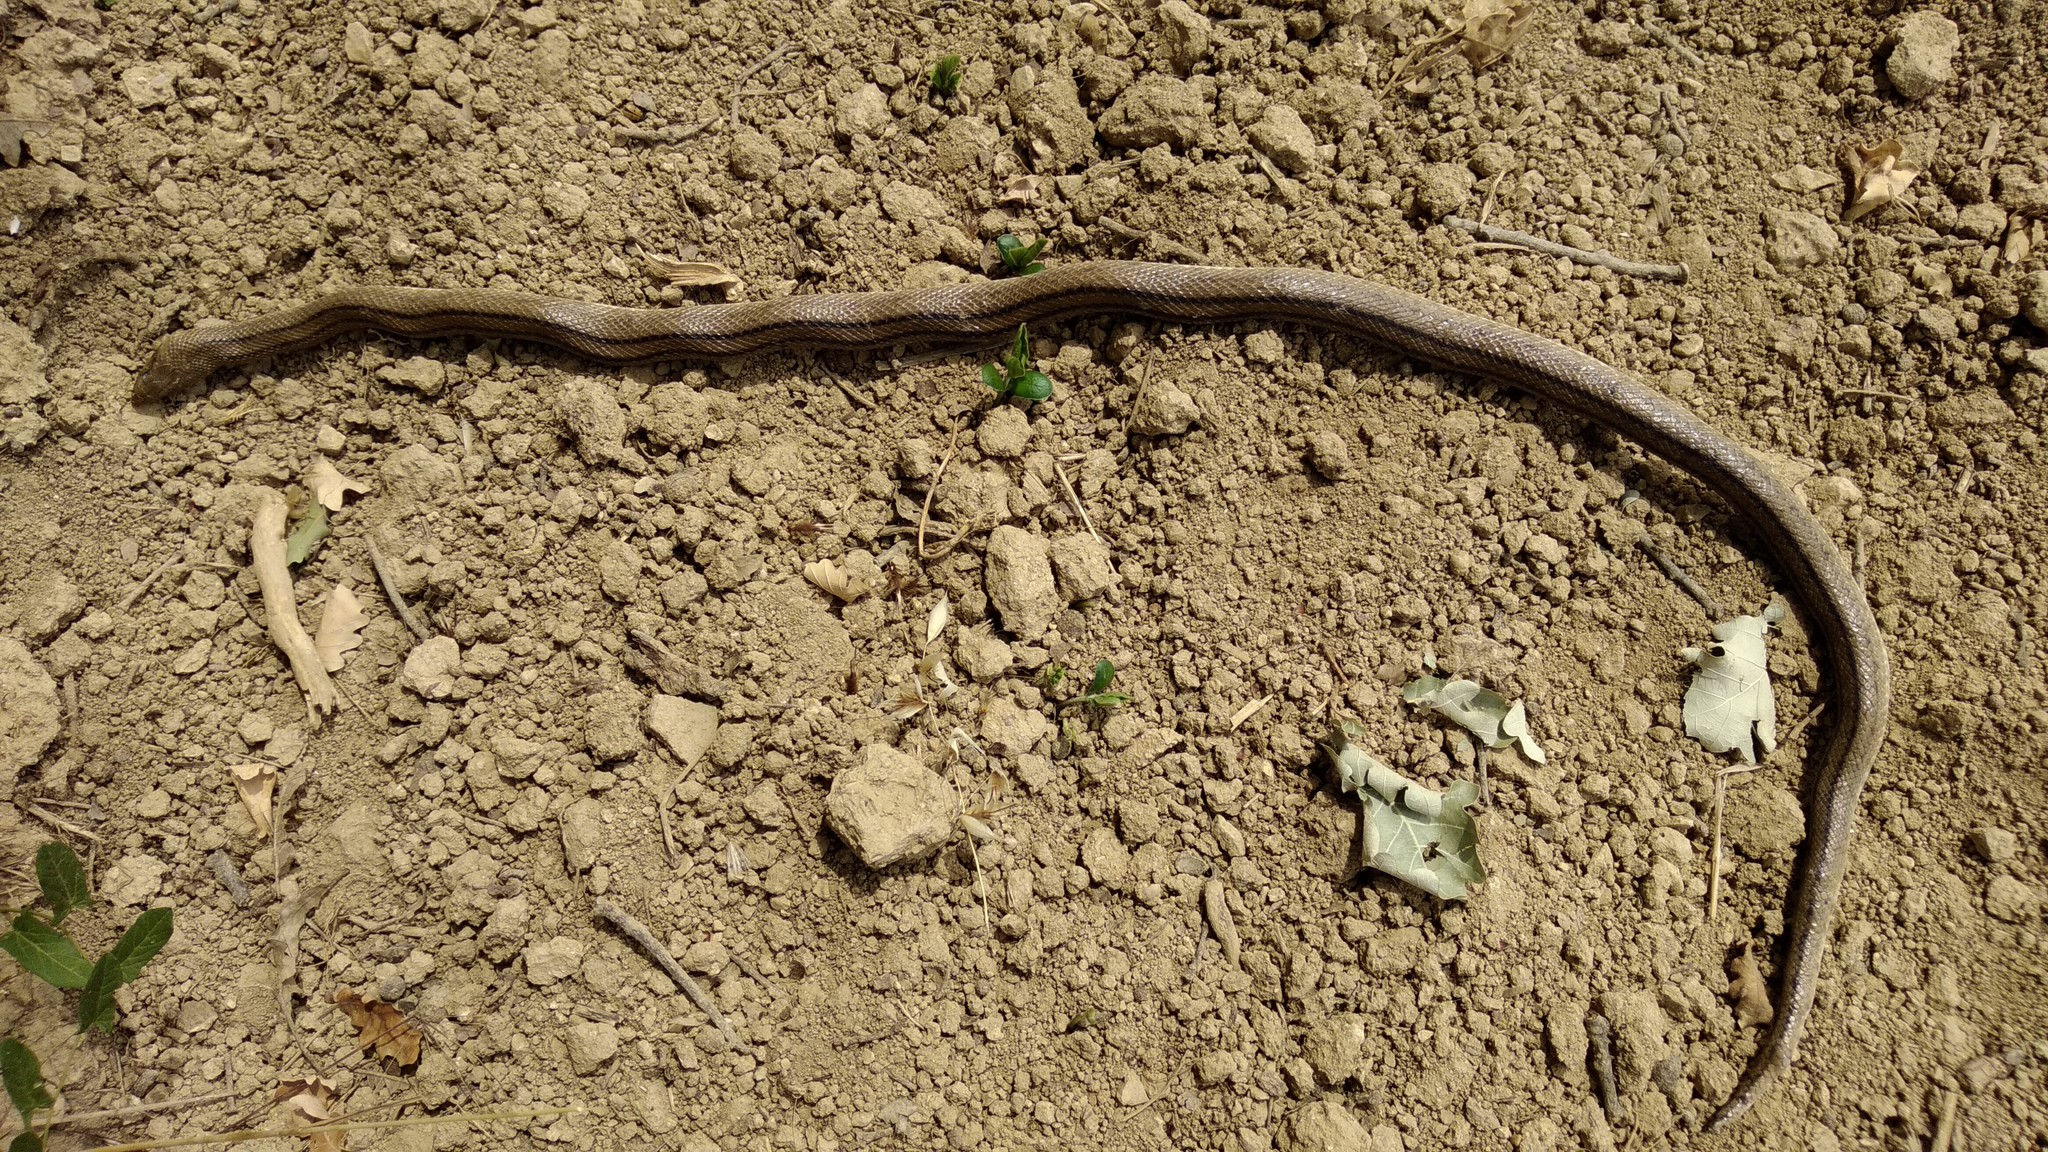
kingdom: Animalia
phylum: Chordata
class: Squamata
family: Colubridae
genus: Zamenis
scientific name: Zamenis scalaris
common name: Ladder snakes
